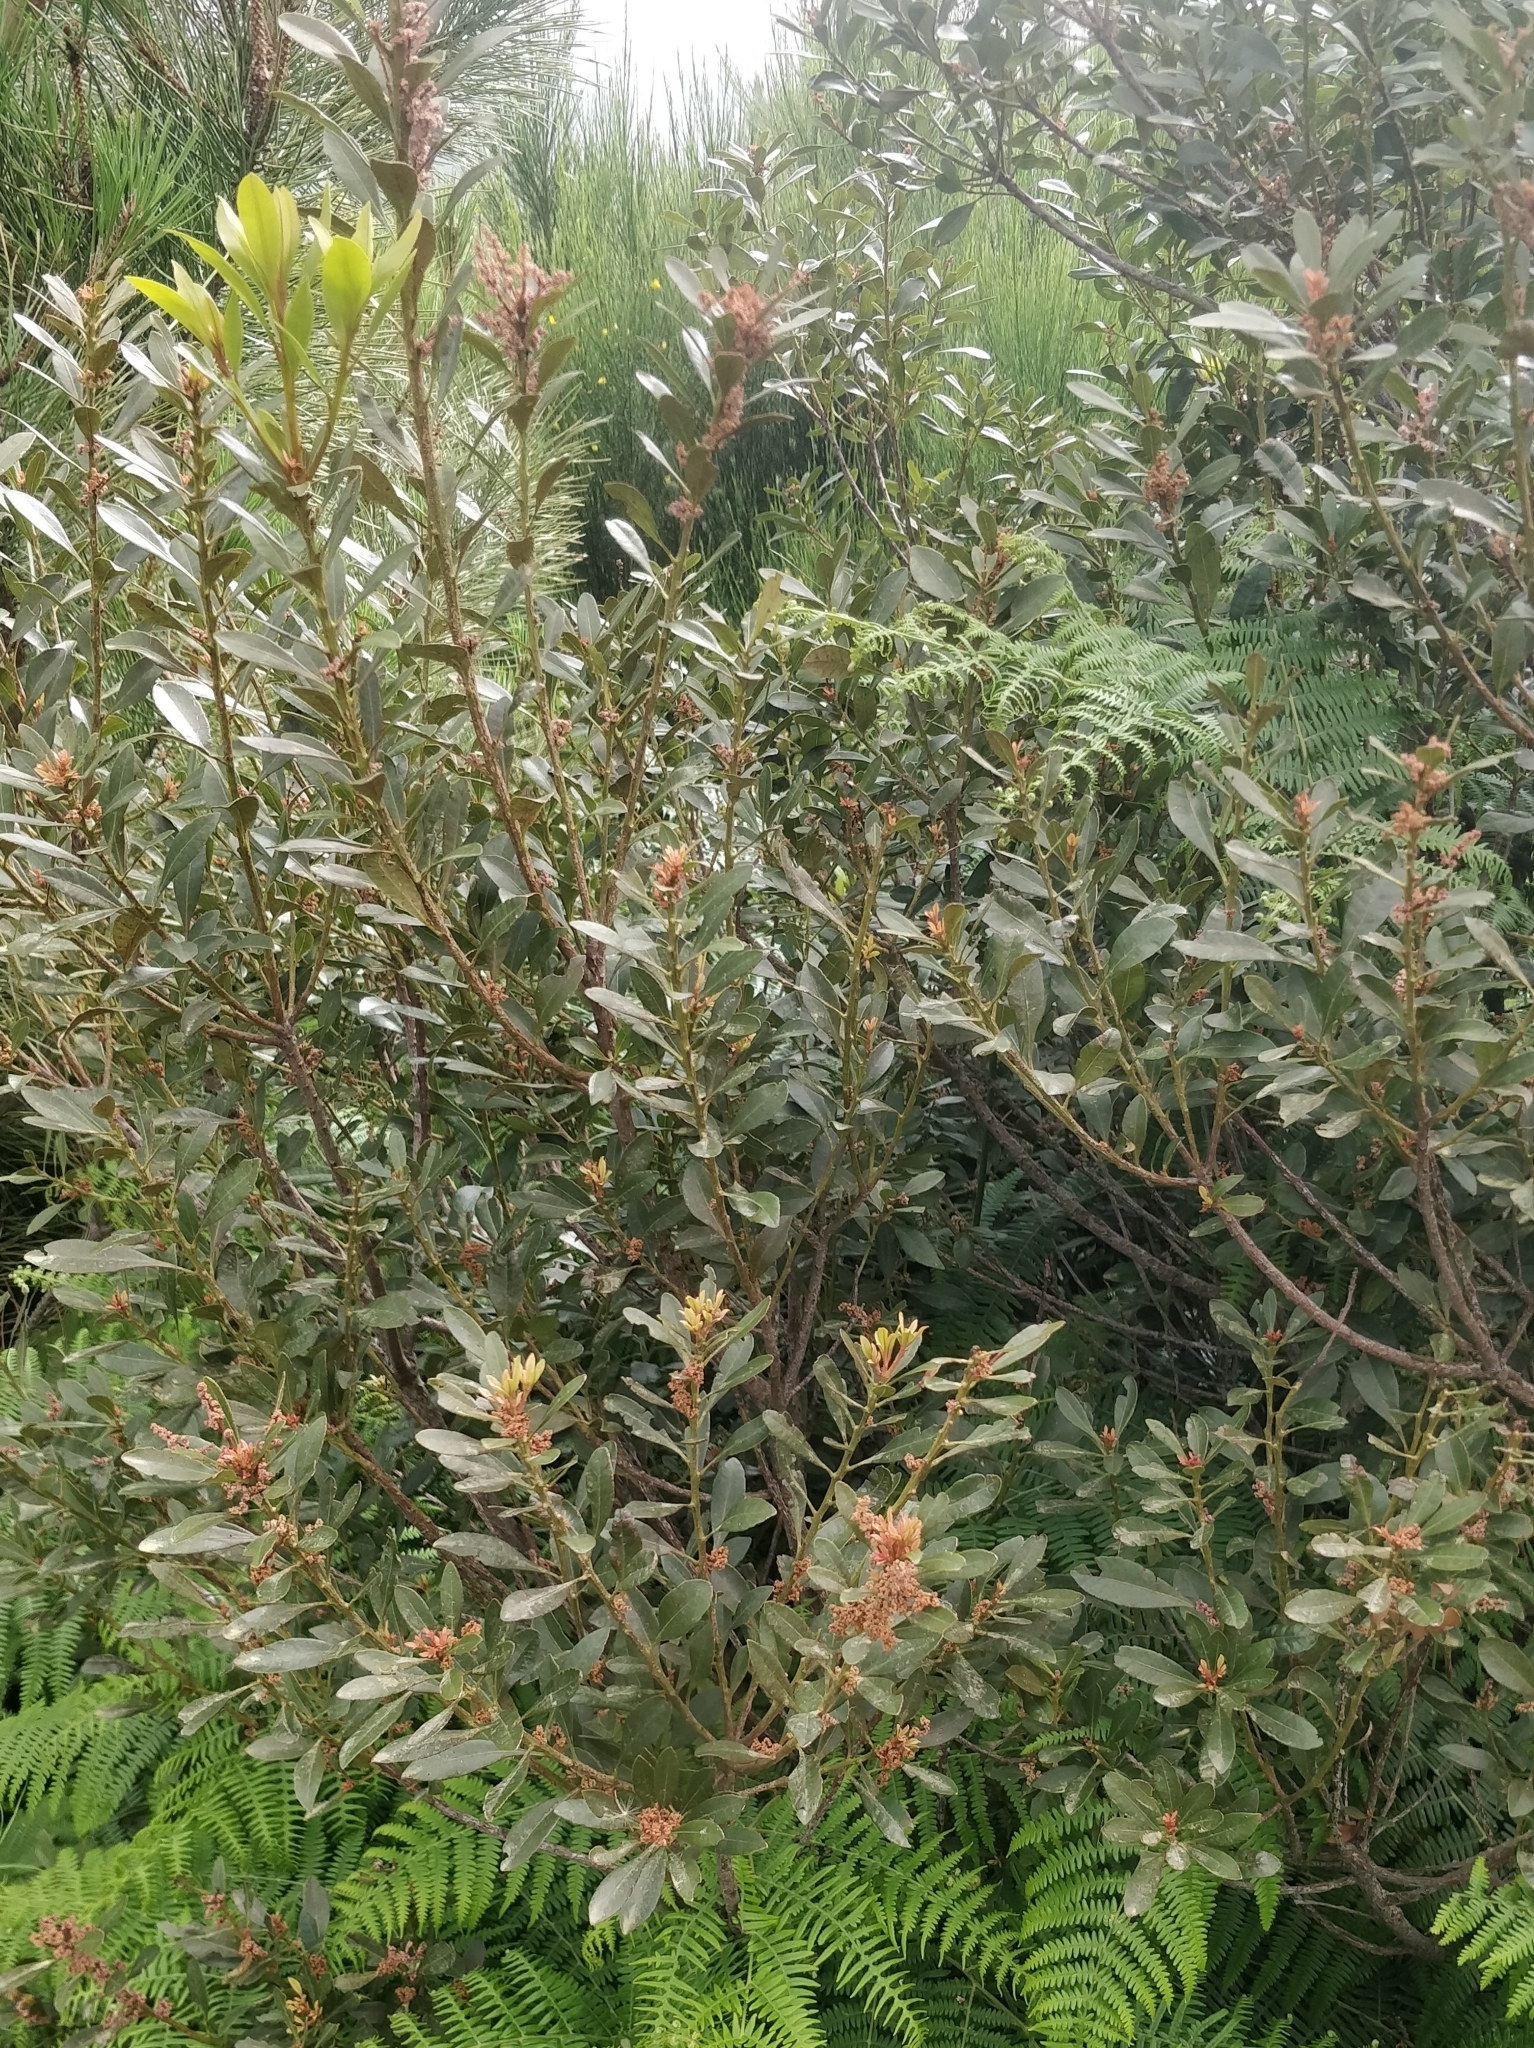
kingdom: Plantae
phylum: Tracheophyta
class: Magnoliopsida
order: Fagales
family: Myricaceae
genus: Morella
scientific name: Morella faya
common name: Firetree
